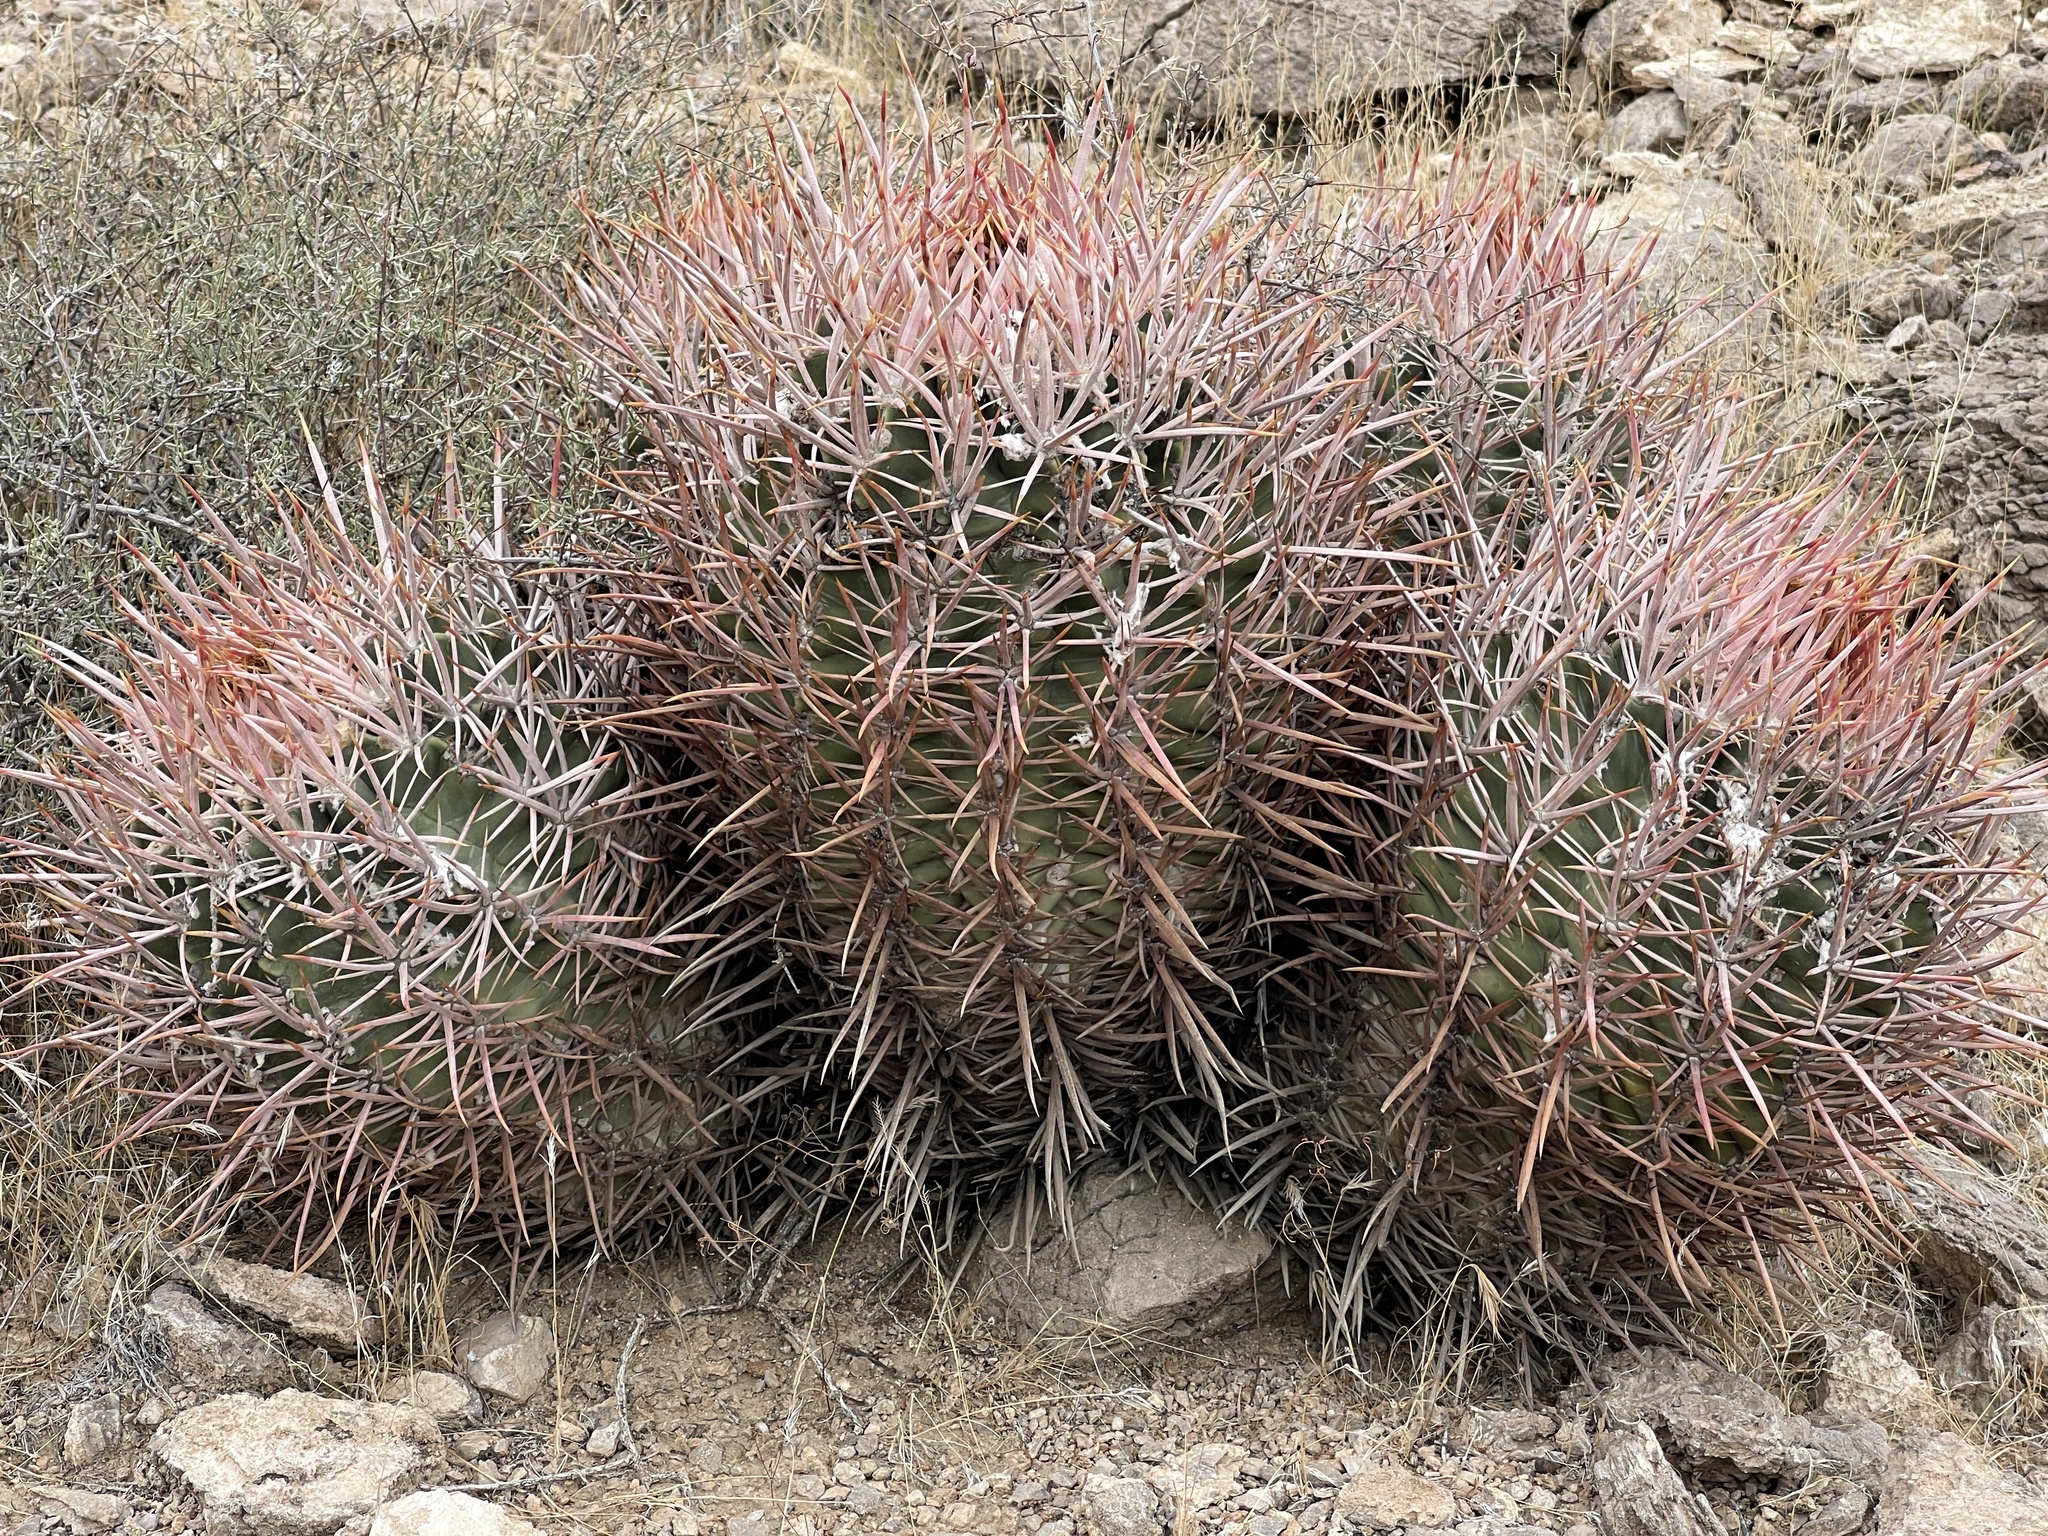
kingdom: Plantae
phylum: Tracheophyta
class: Magnoliopsida
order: Caryophyllales
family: Cactaceae
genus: Echinocactus
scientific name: Echinocactus polycephalus
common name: Cottontop cactus
